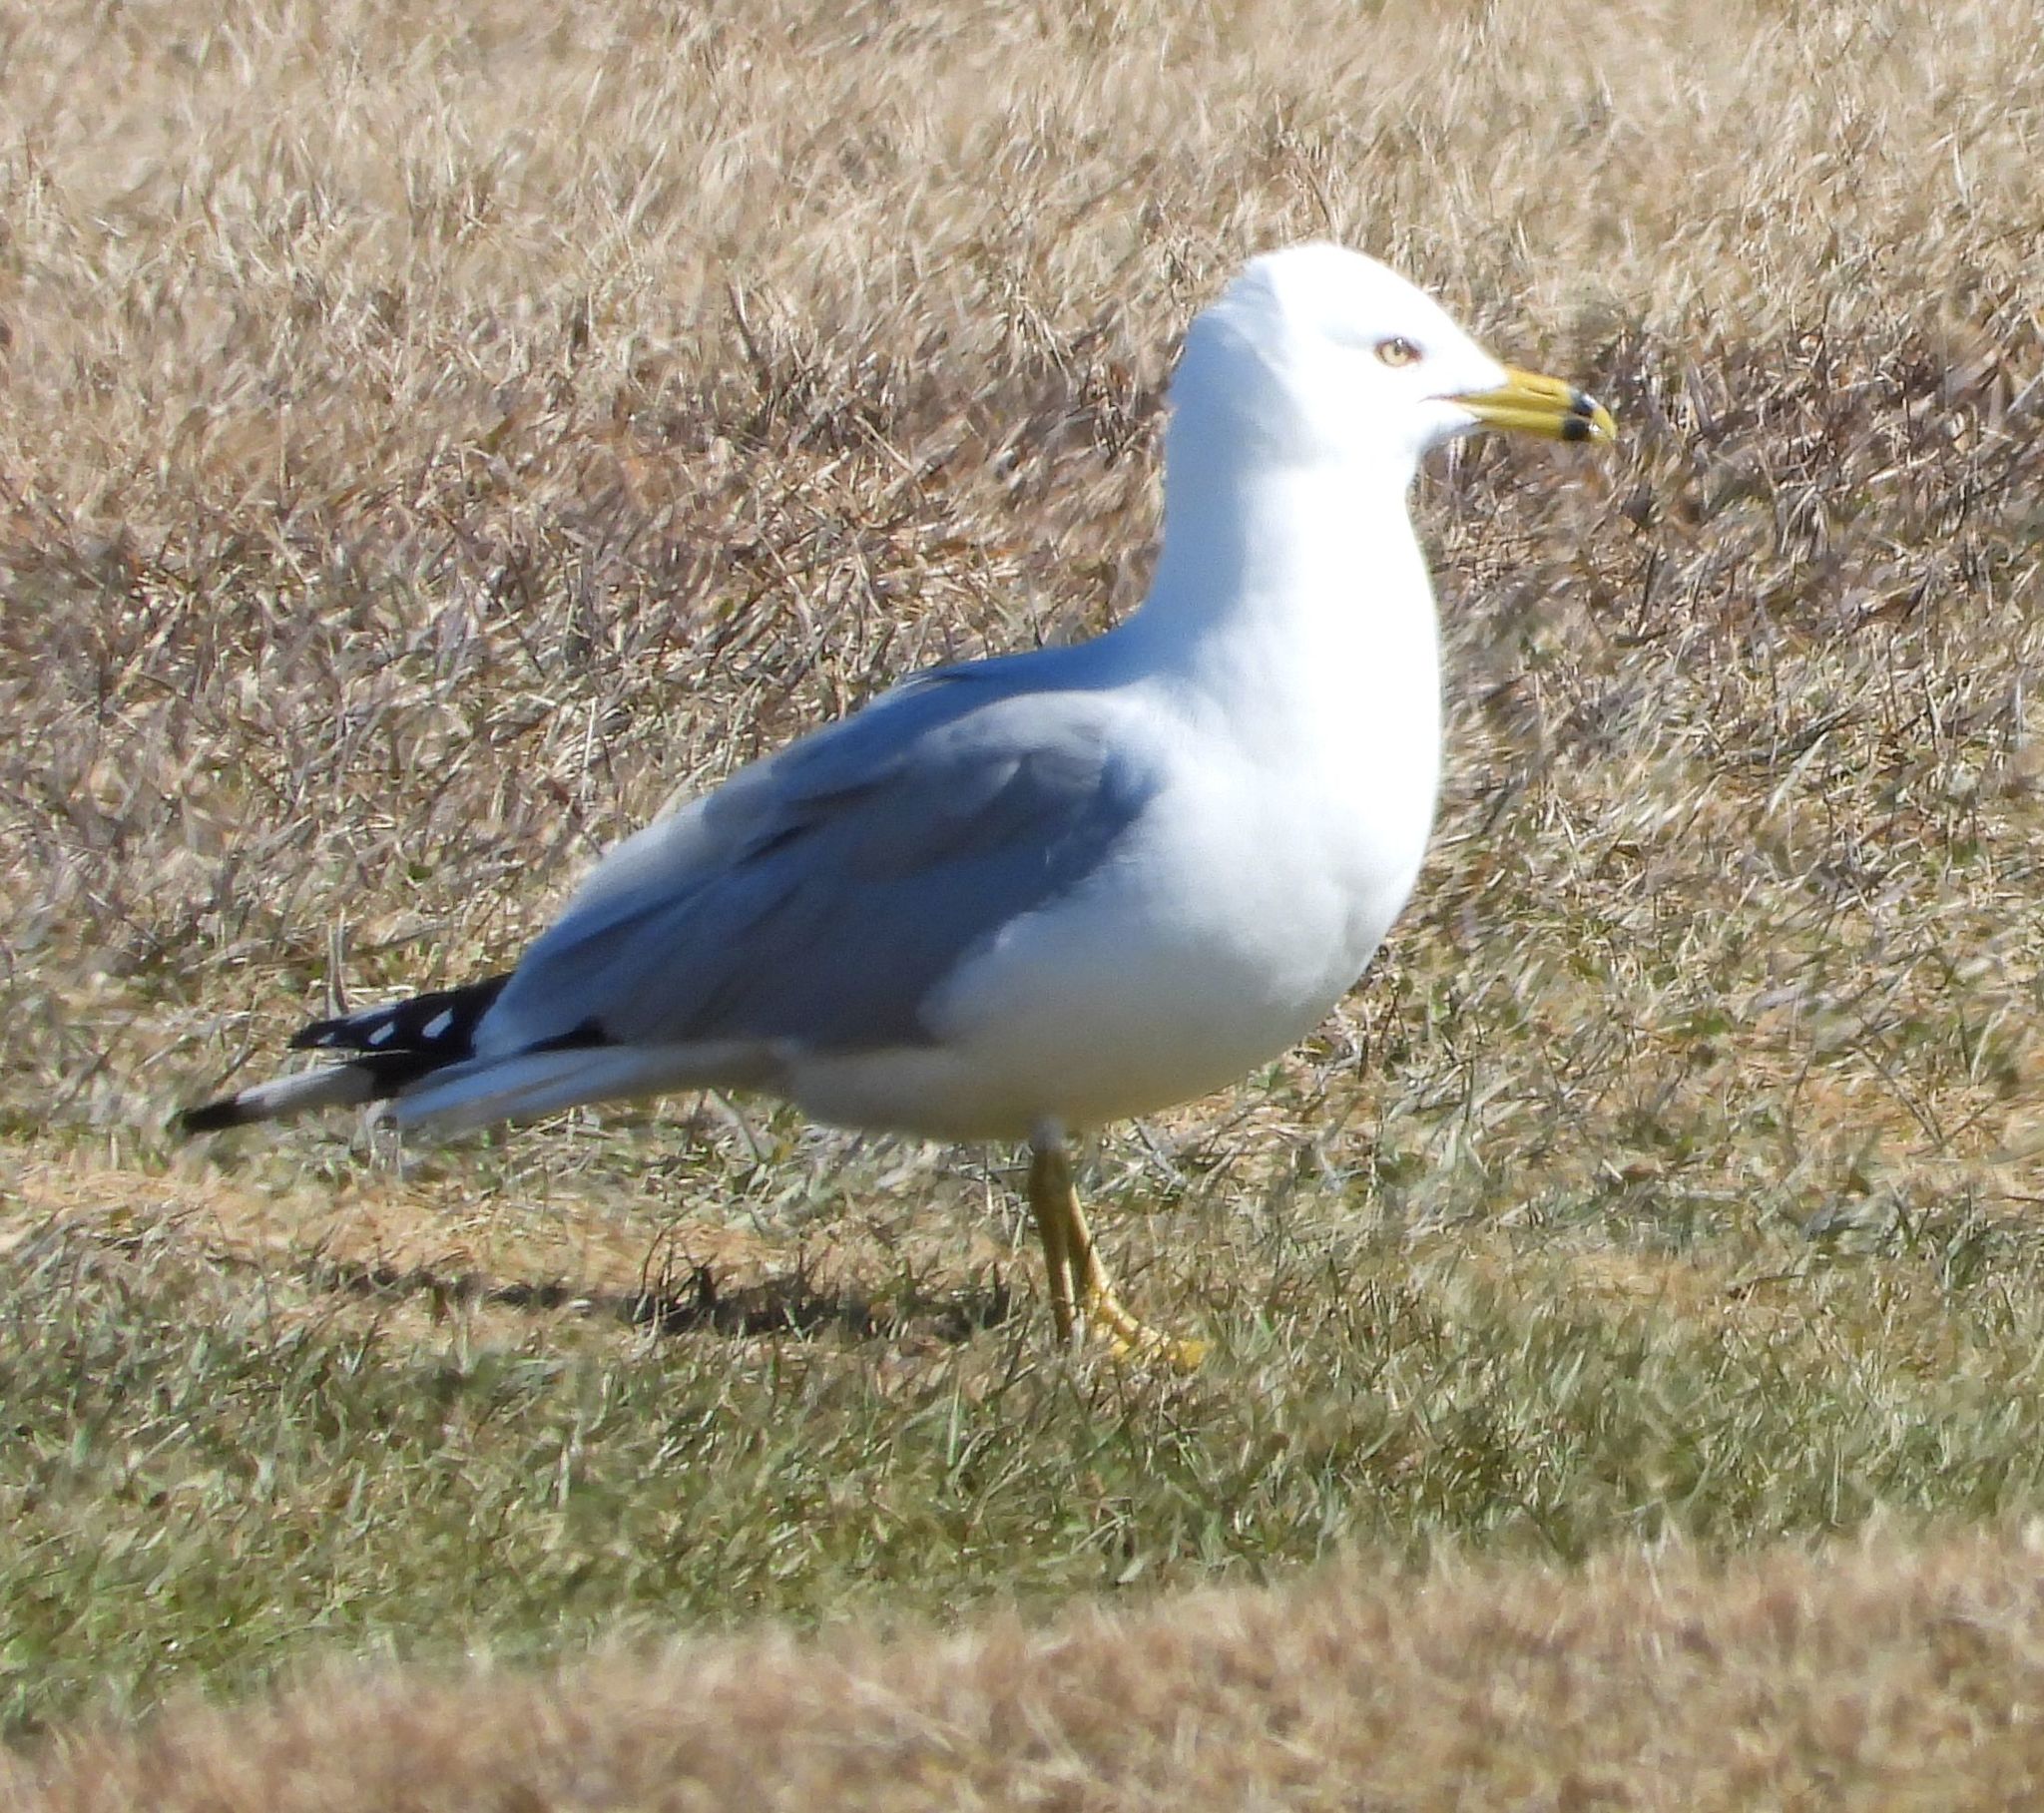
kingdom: Animalia
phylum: Chordata
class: Aves
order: Charadriiformes
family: Laridae
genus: Larus
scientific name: Larus delawarensis
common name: Ring-billed gull
